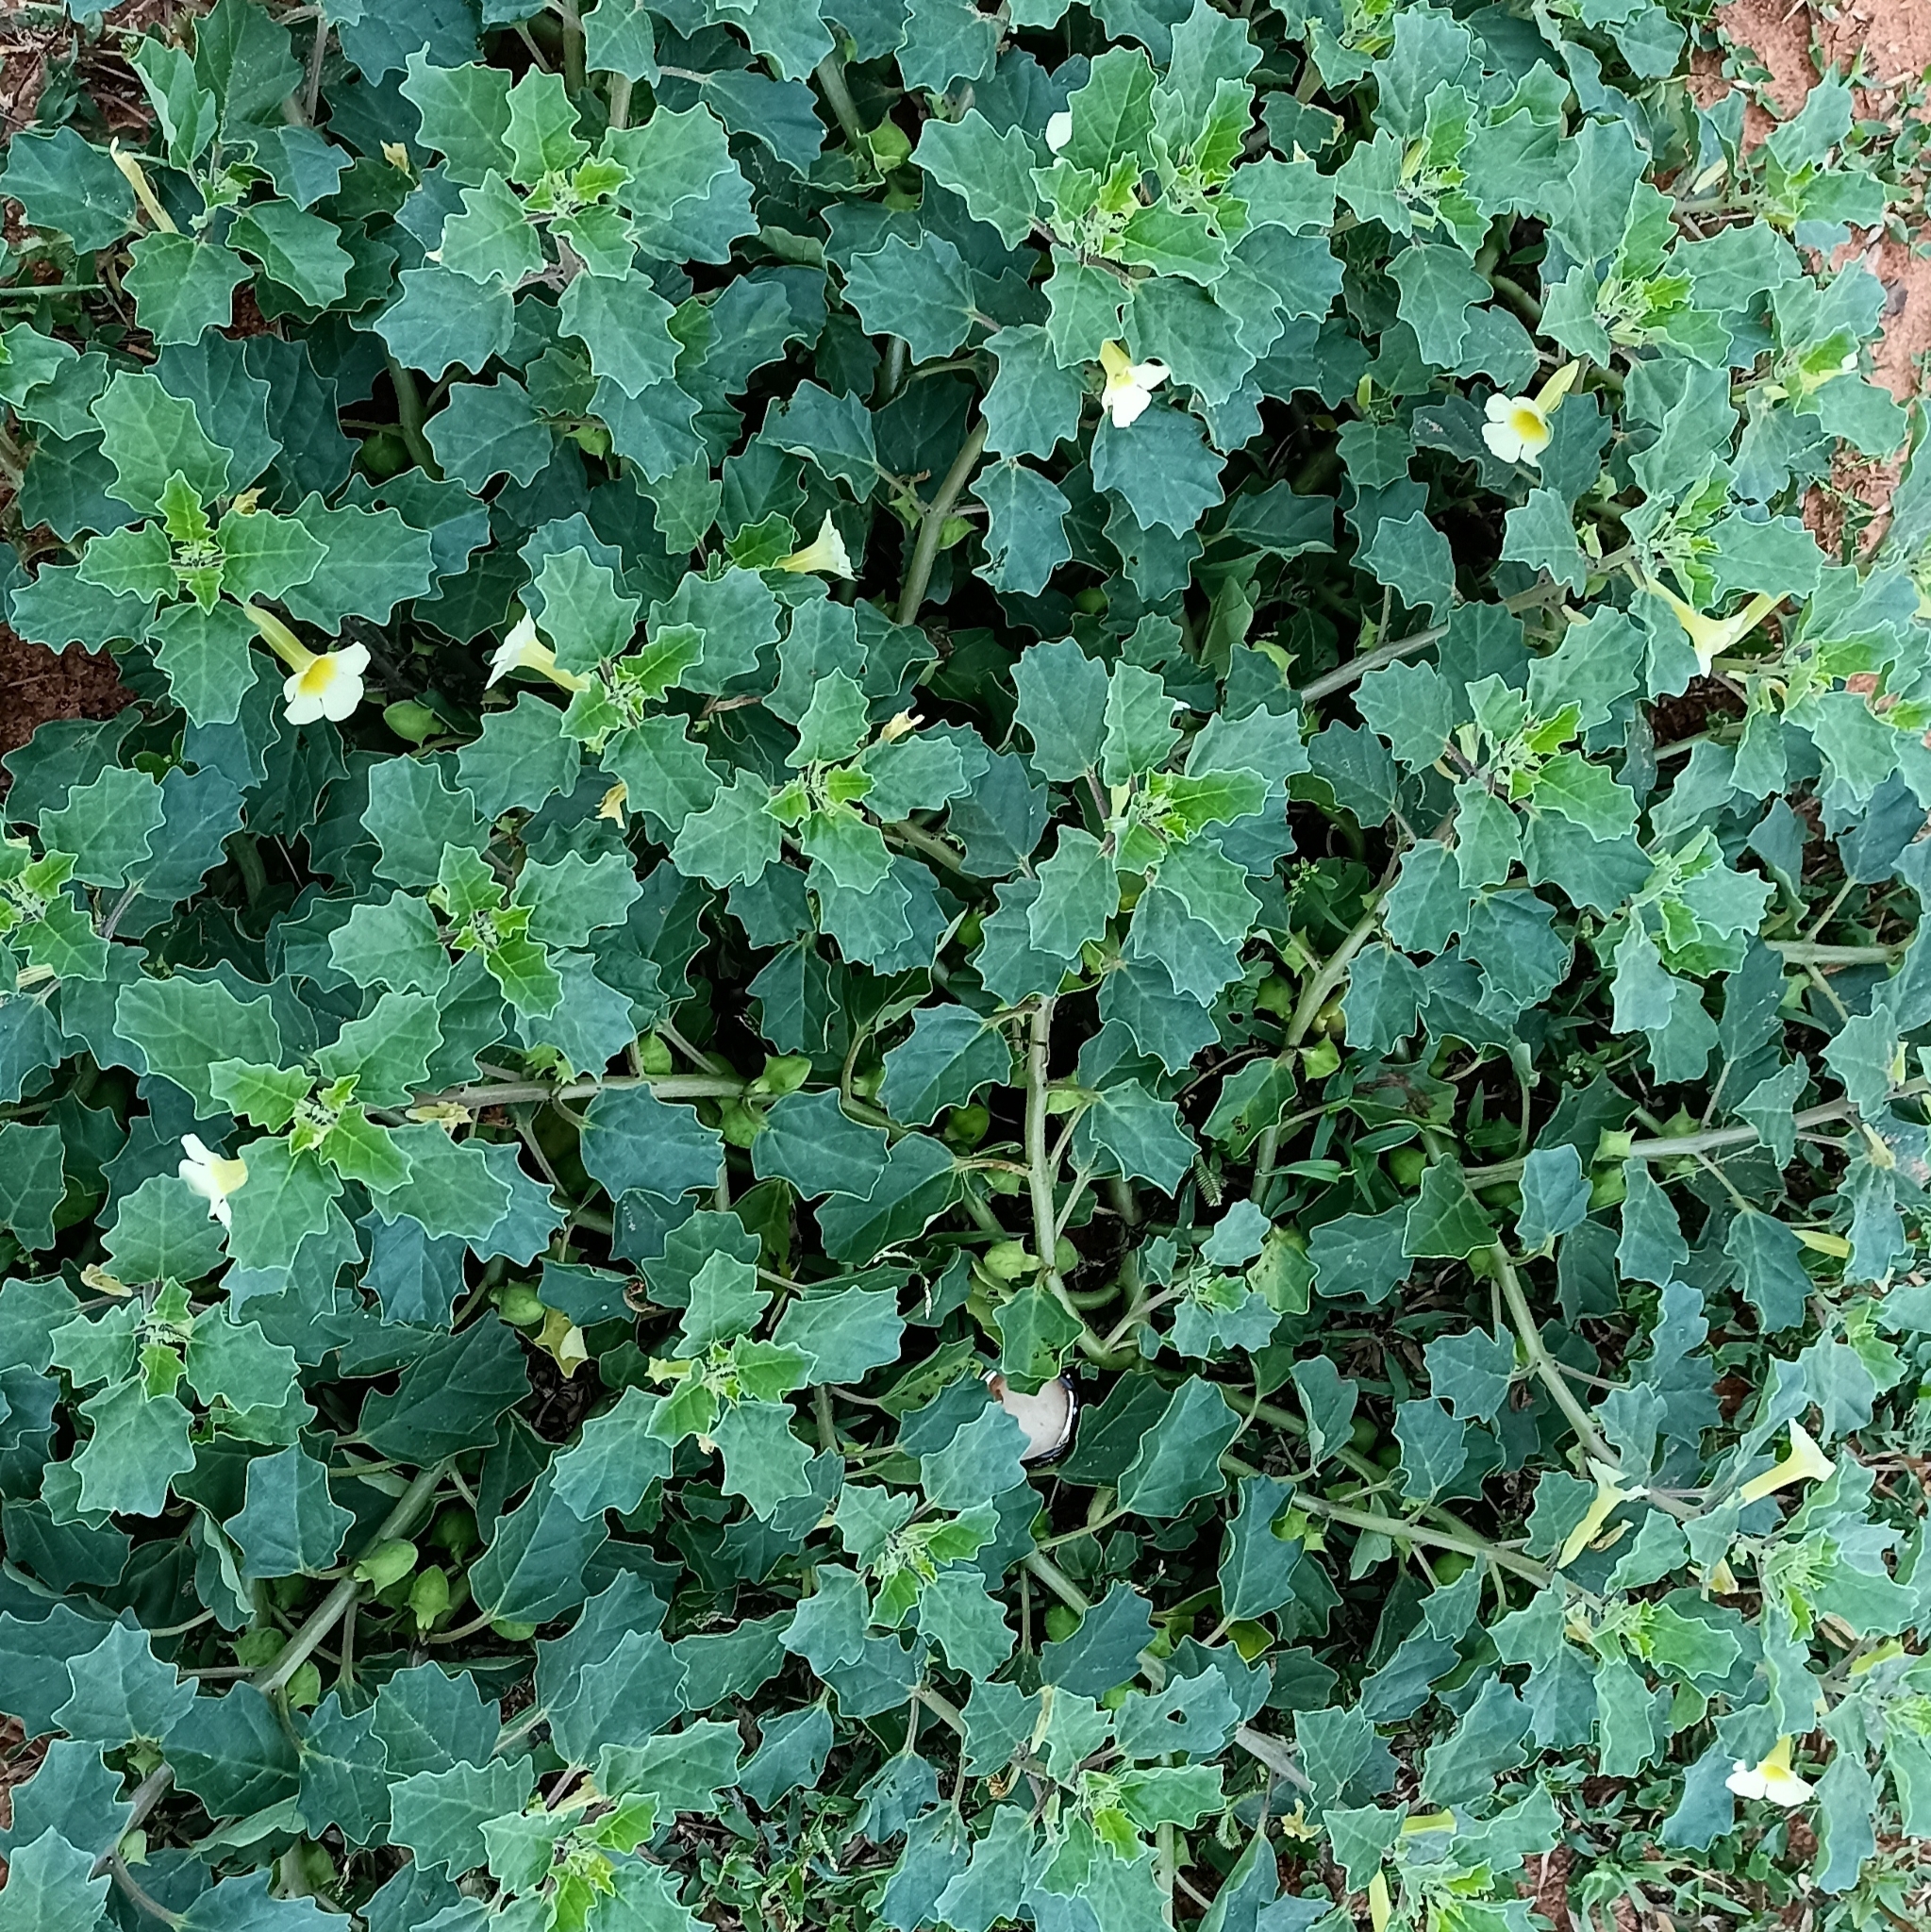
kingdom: Plantae
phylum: Tracheophyta
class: Magnoliopsida
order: Lamiales
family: Pedaliaceae
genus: Pedalium
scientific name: Pedalium murex
